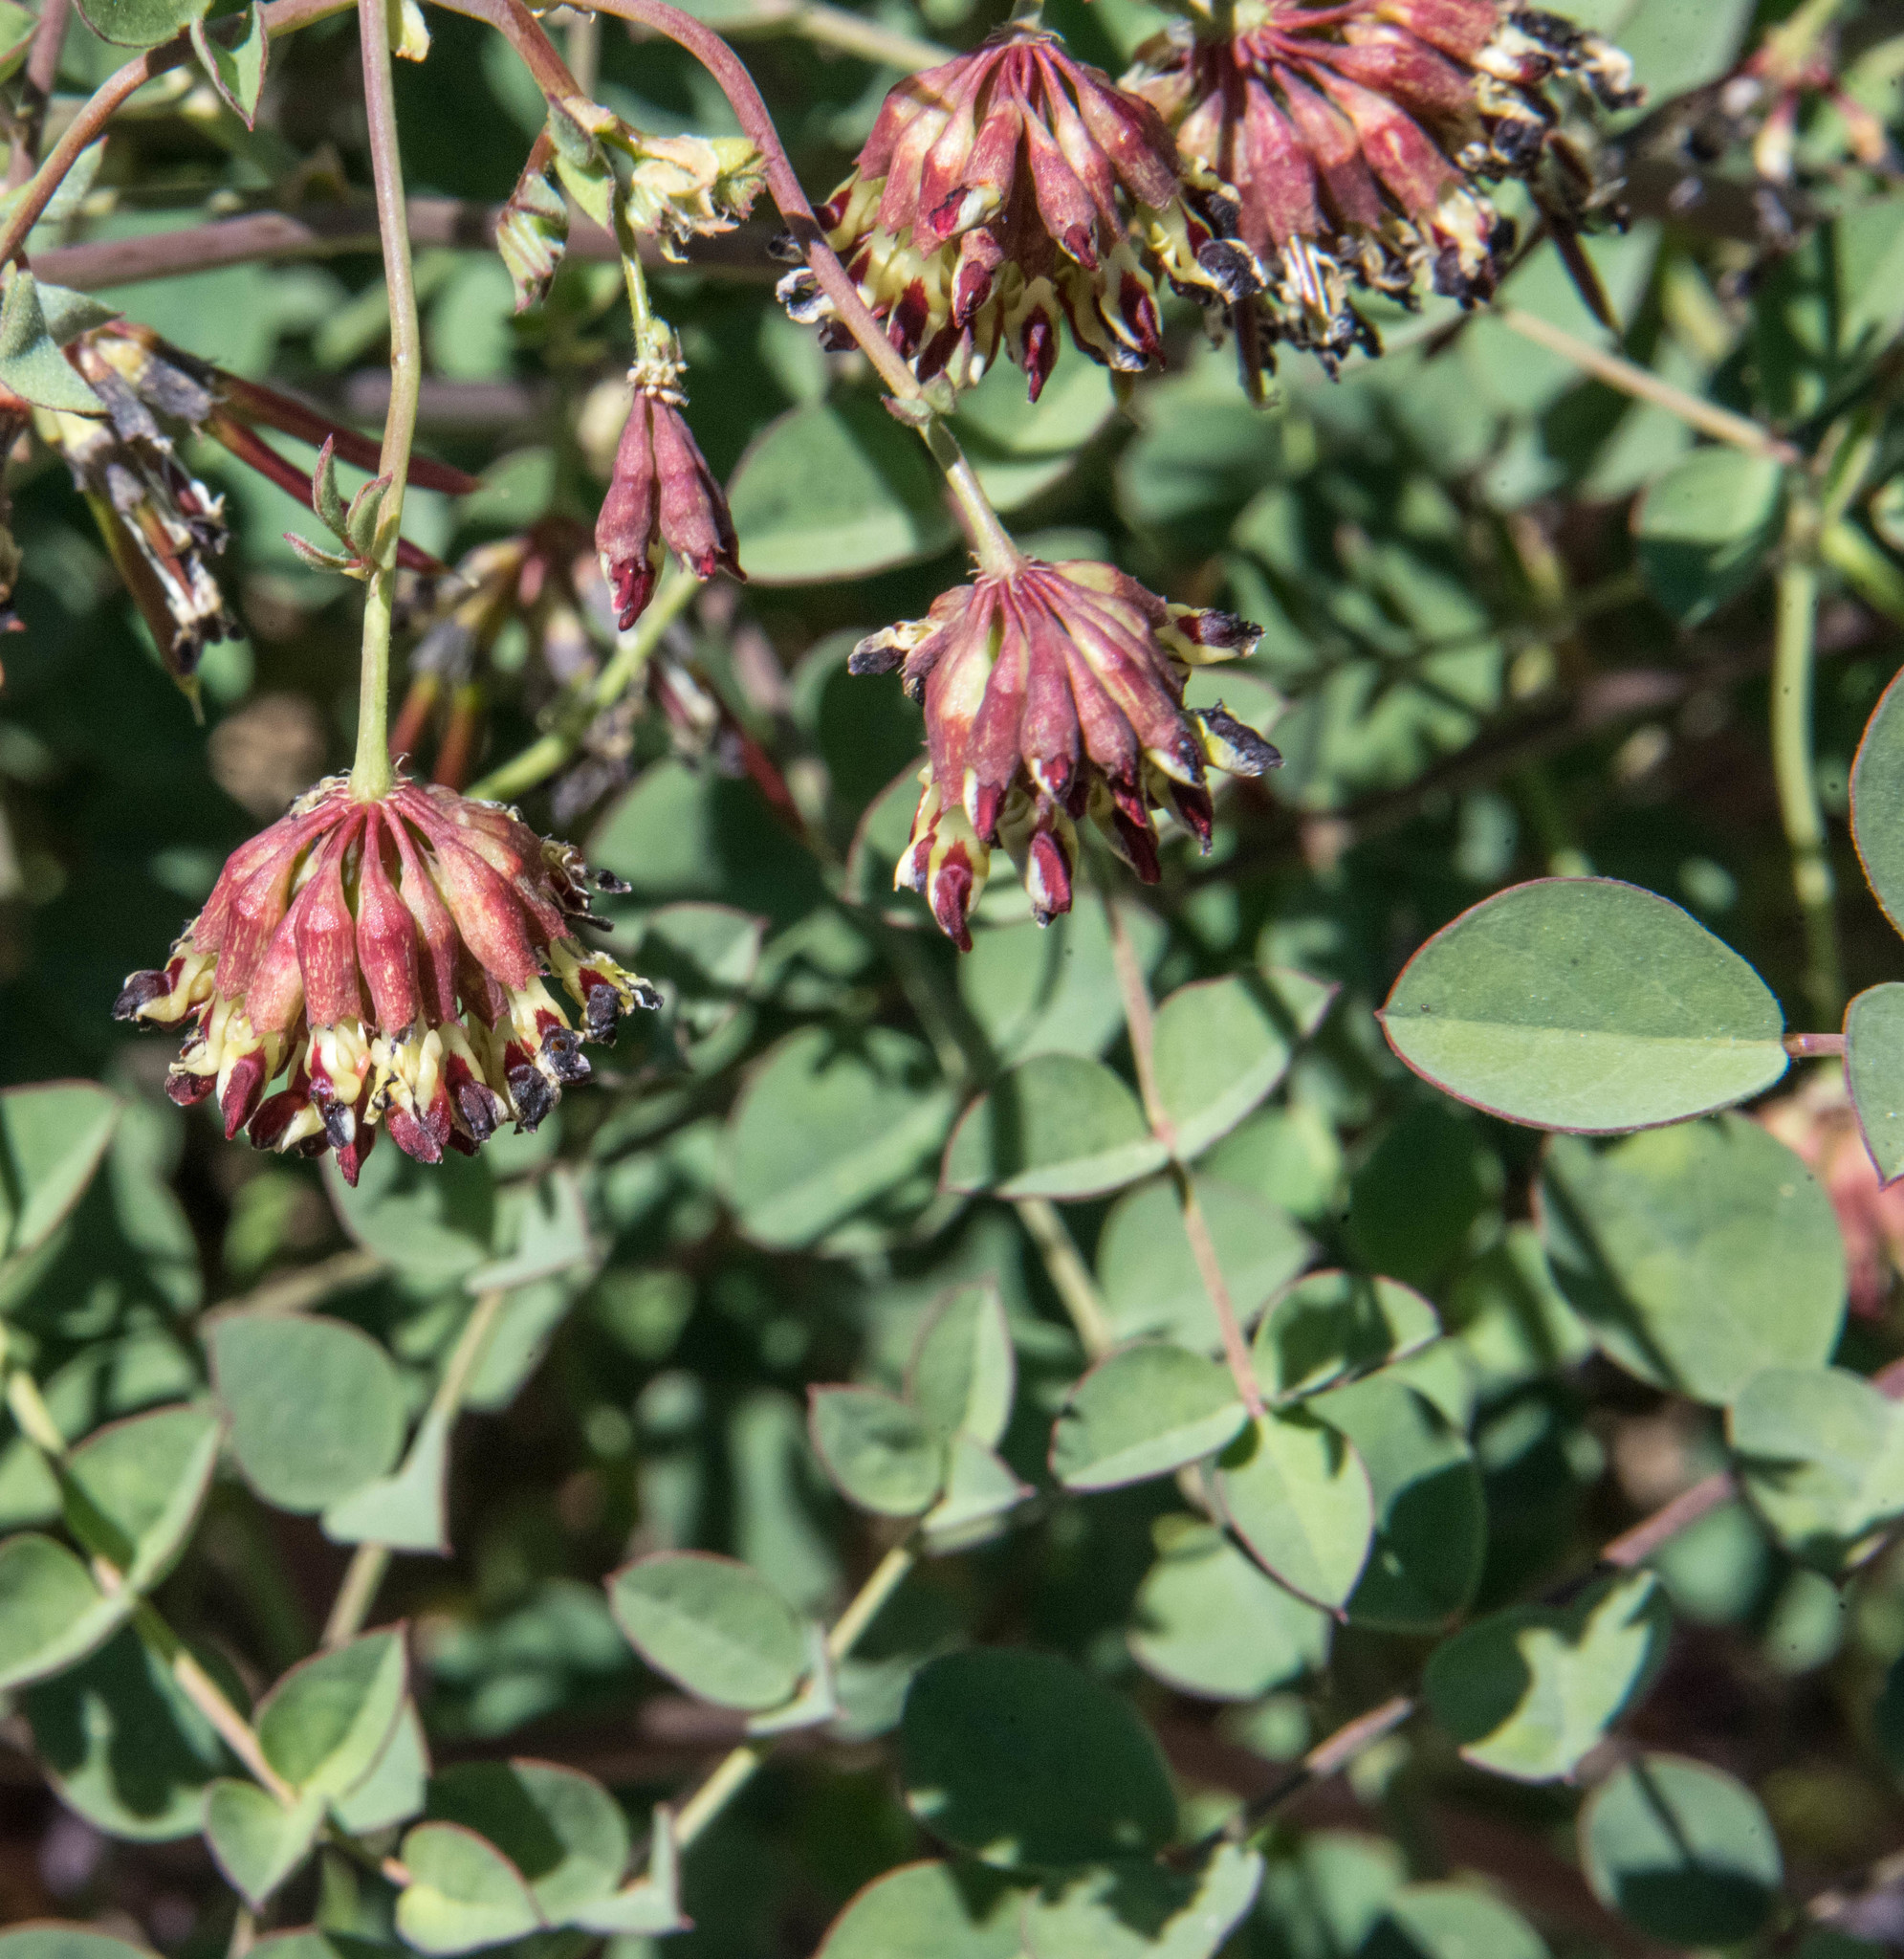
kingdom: Plantae
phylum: Tracheophyta
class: Magnoliopsida
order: Fabales
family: Fabaceae
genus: Hosackia
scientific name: Hosackia crassifolia
